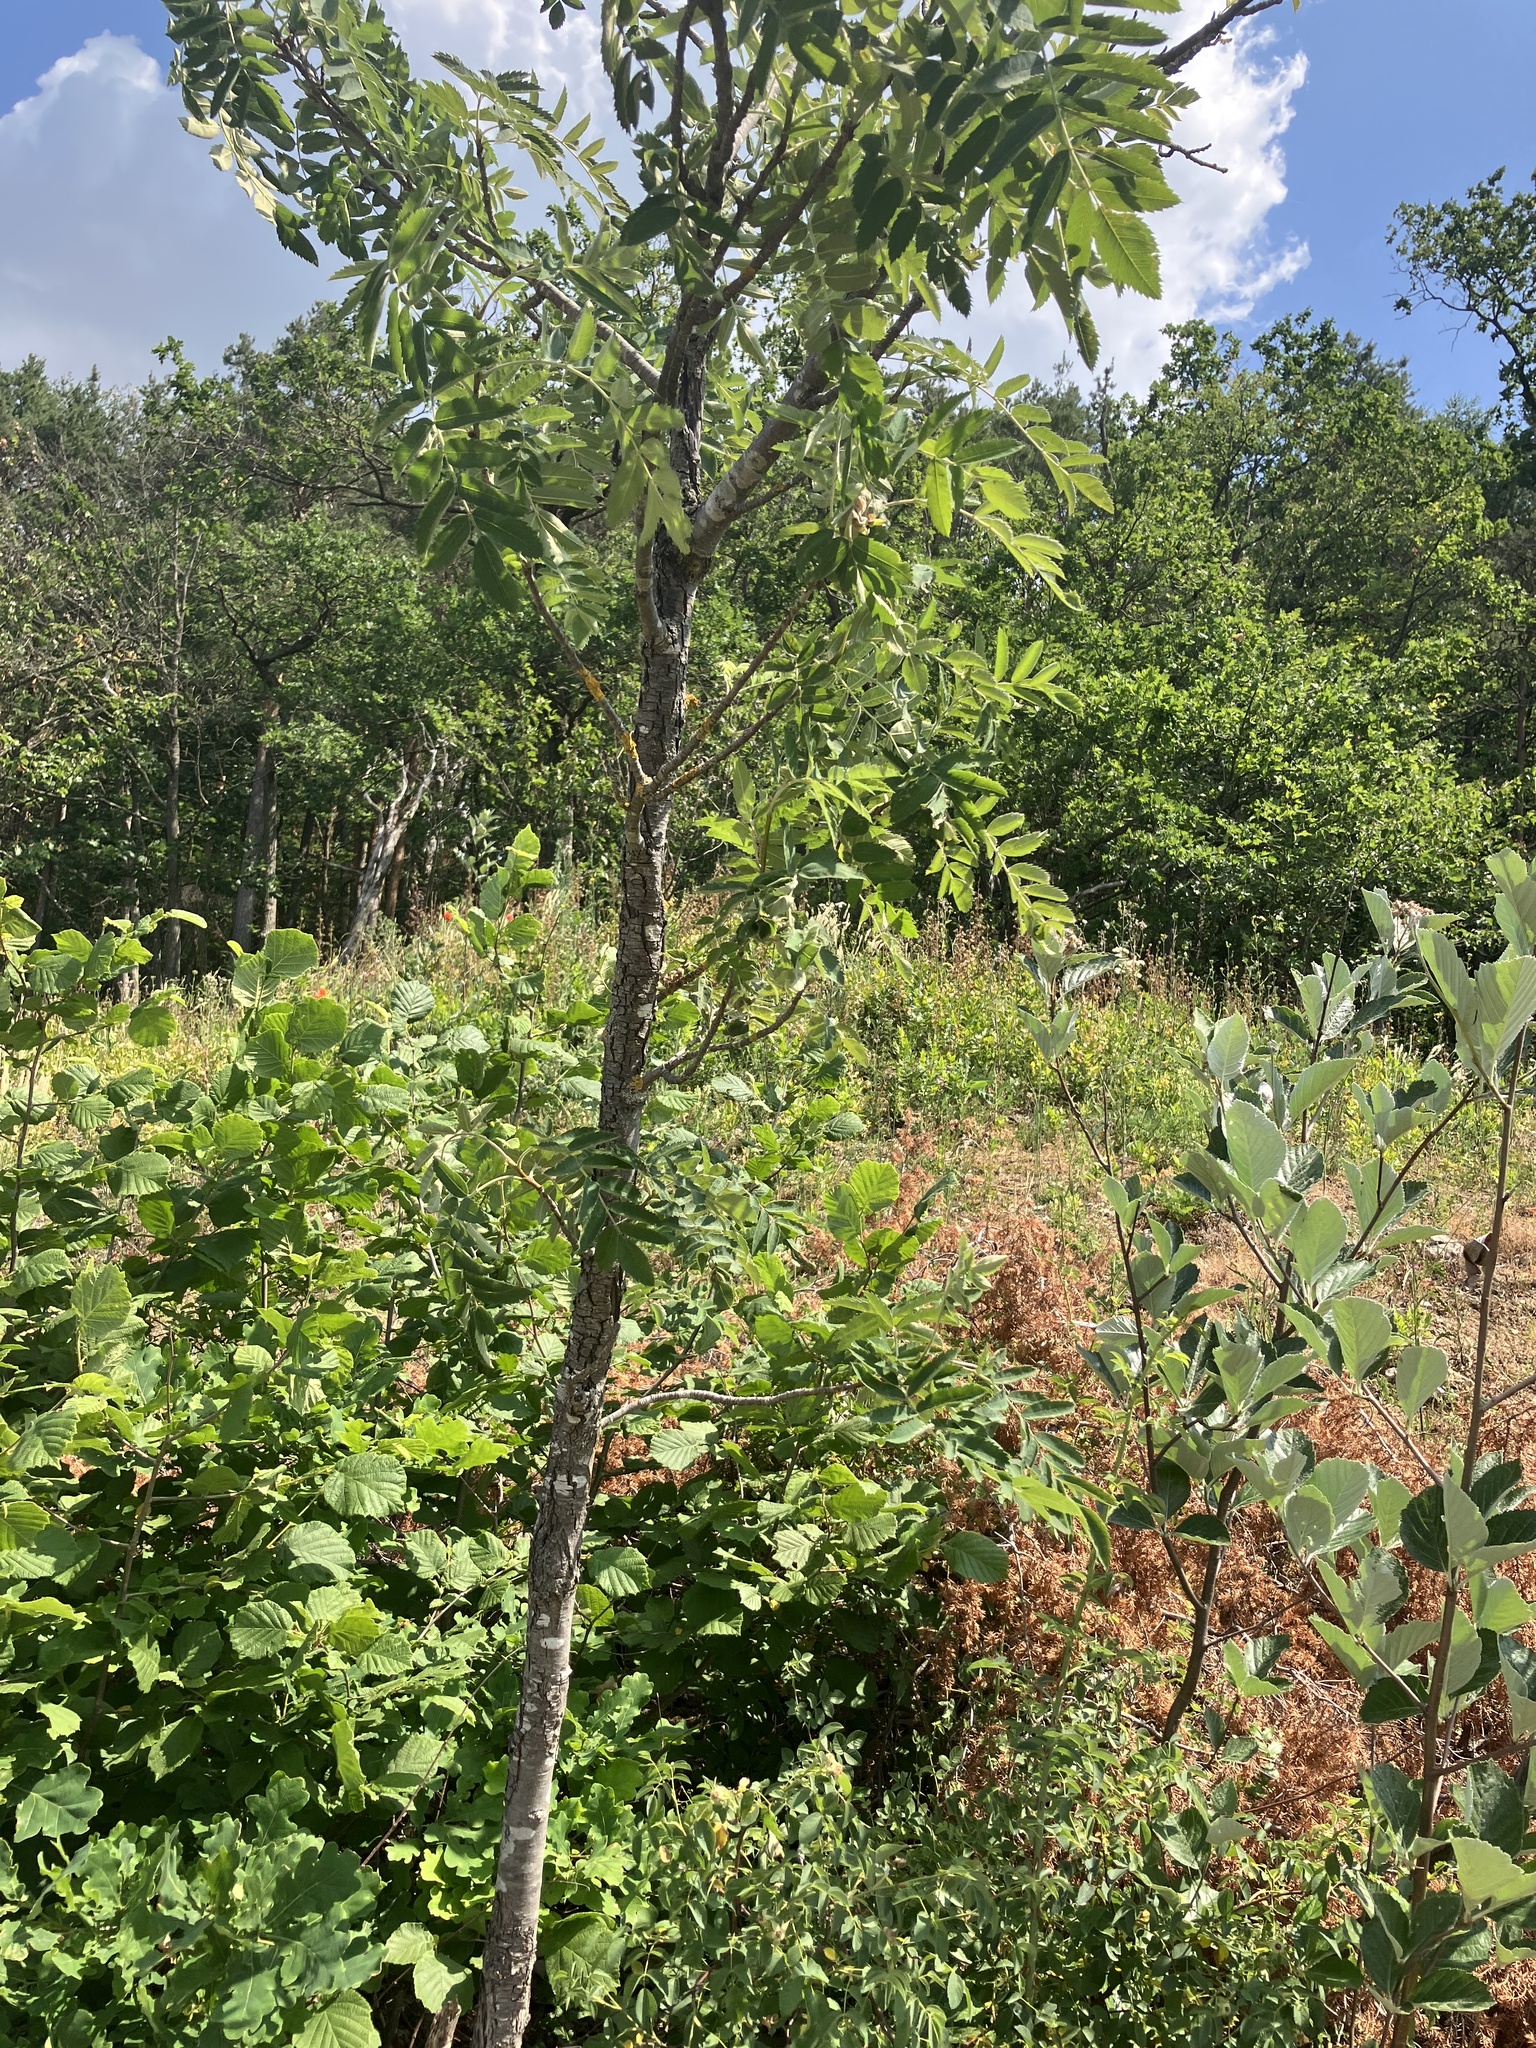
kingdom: Plantae
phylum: Tracheophyta
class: Magnoliopsida
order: Rosales
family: Rosaceae
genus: Cormus
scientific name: Cormus domestica
